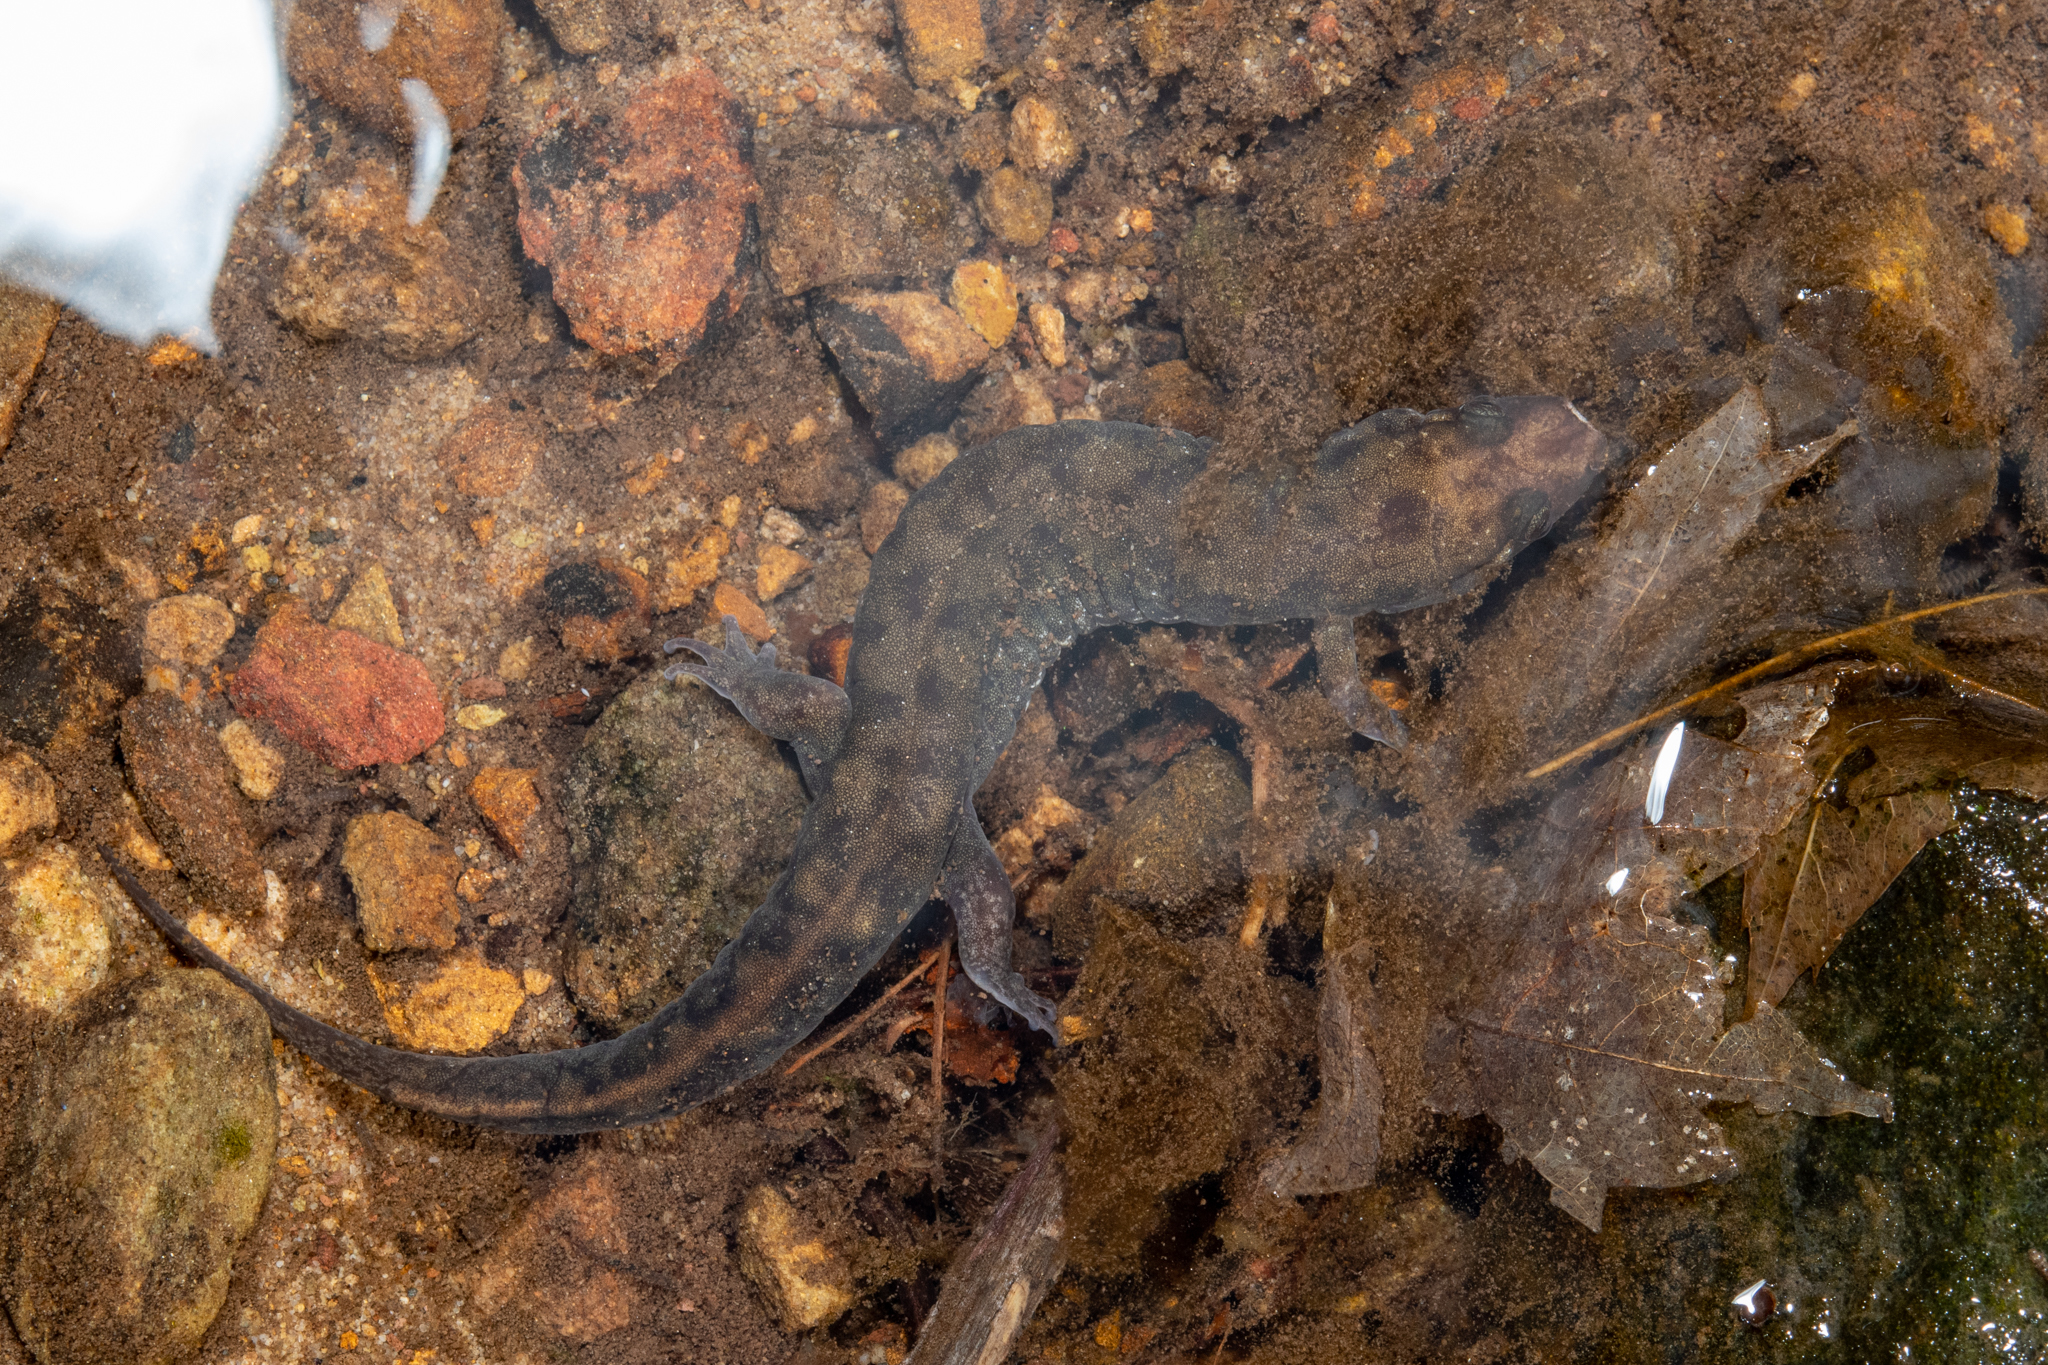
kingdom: Animalia
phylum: Chordata
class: Amphibia
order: Caudata
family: Plethodontidae
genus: Desmognathus
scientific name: Desmognathus monticola
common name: Seal salamander
